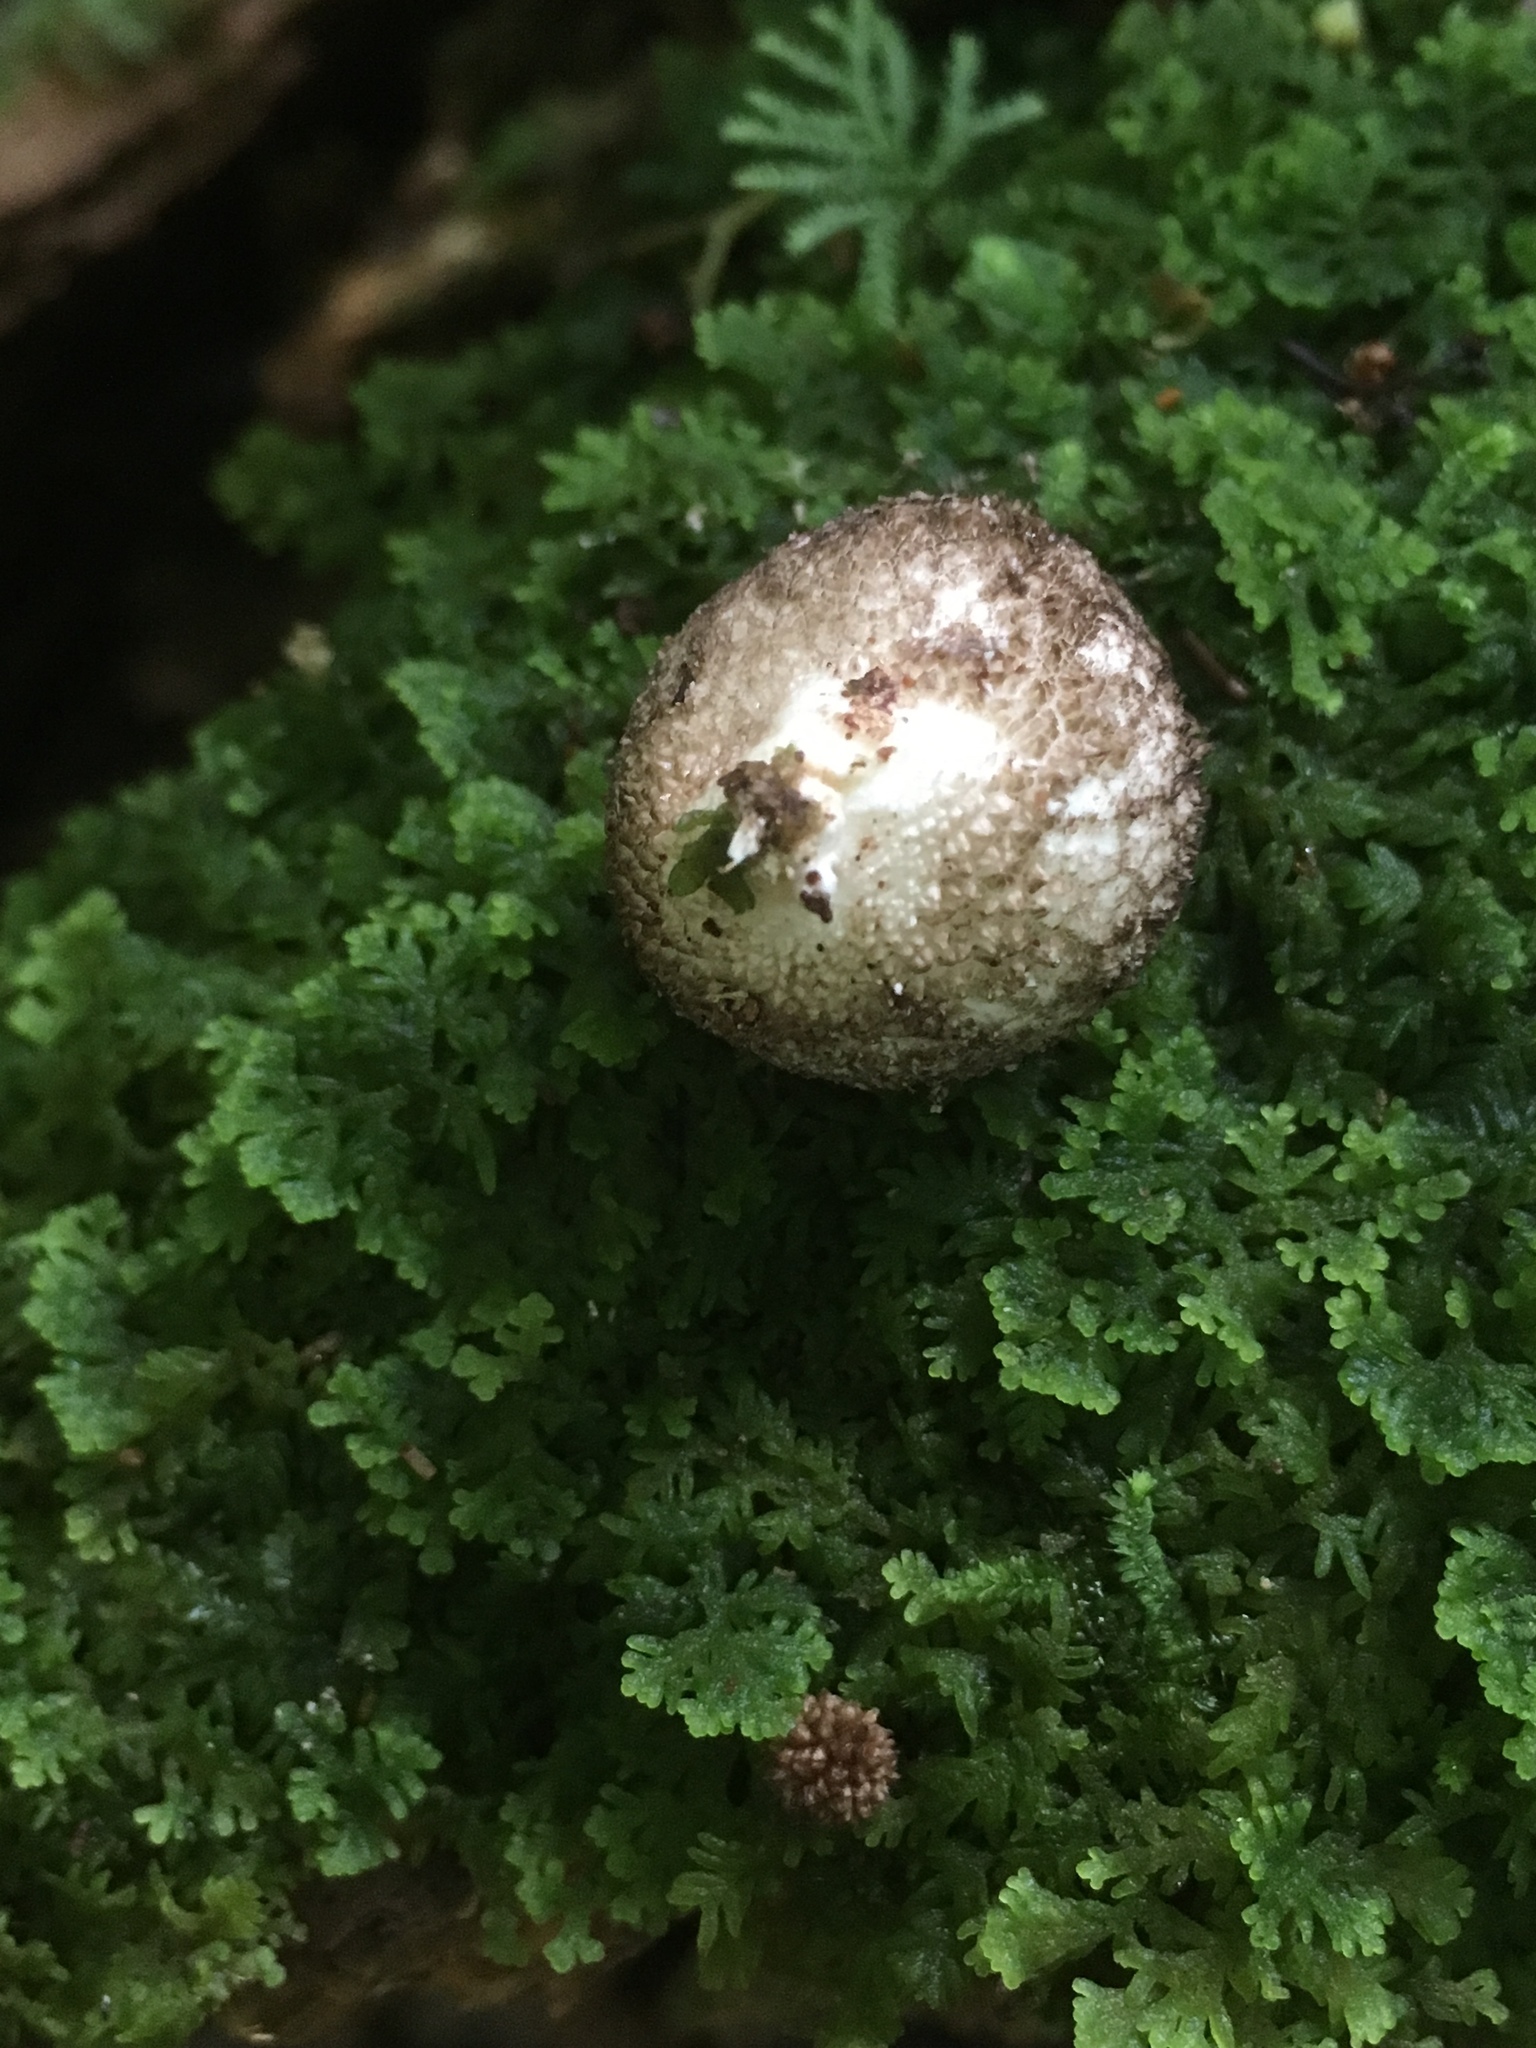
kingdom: Fungi
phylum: Basidiomycota
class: Agaricomycetes
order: Agaricales
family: Lycoperdaceae
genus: Lycoperdon
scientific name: Lycoperdon compactum
